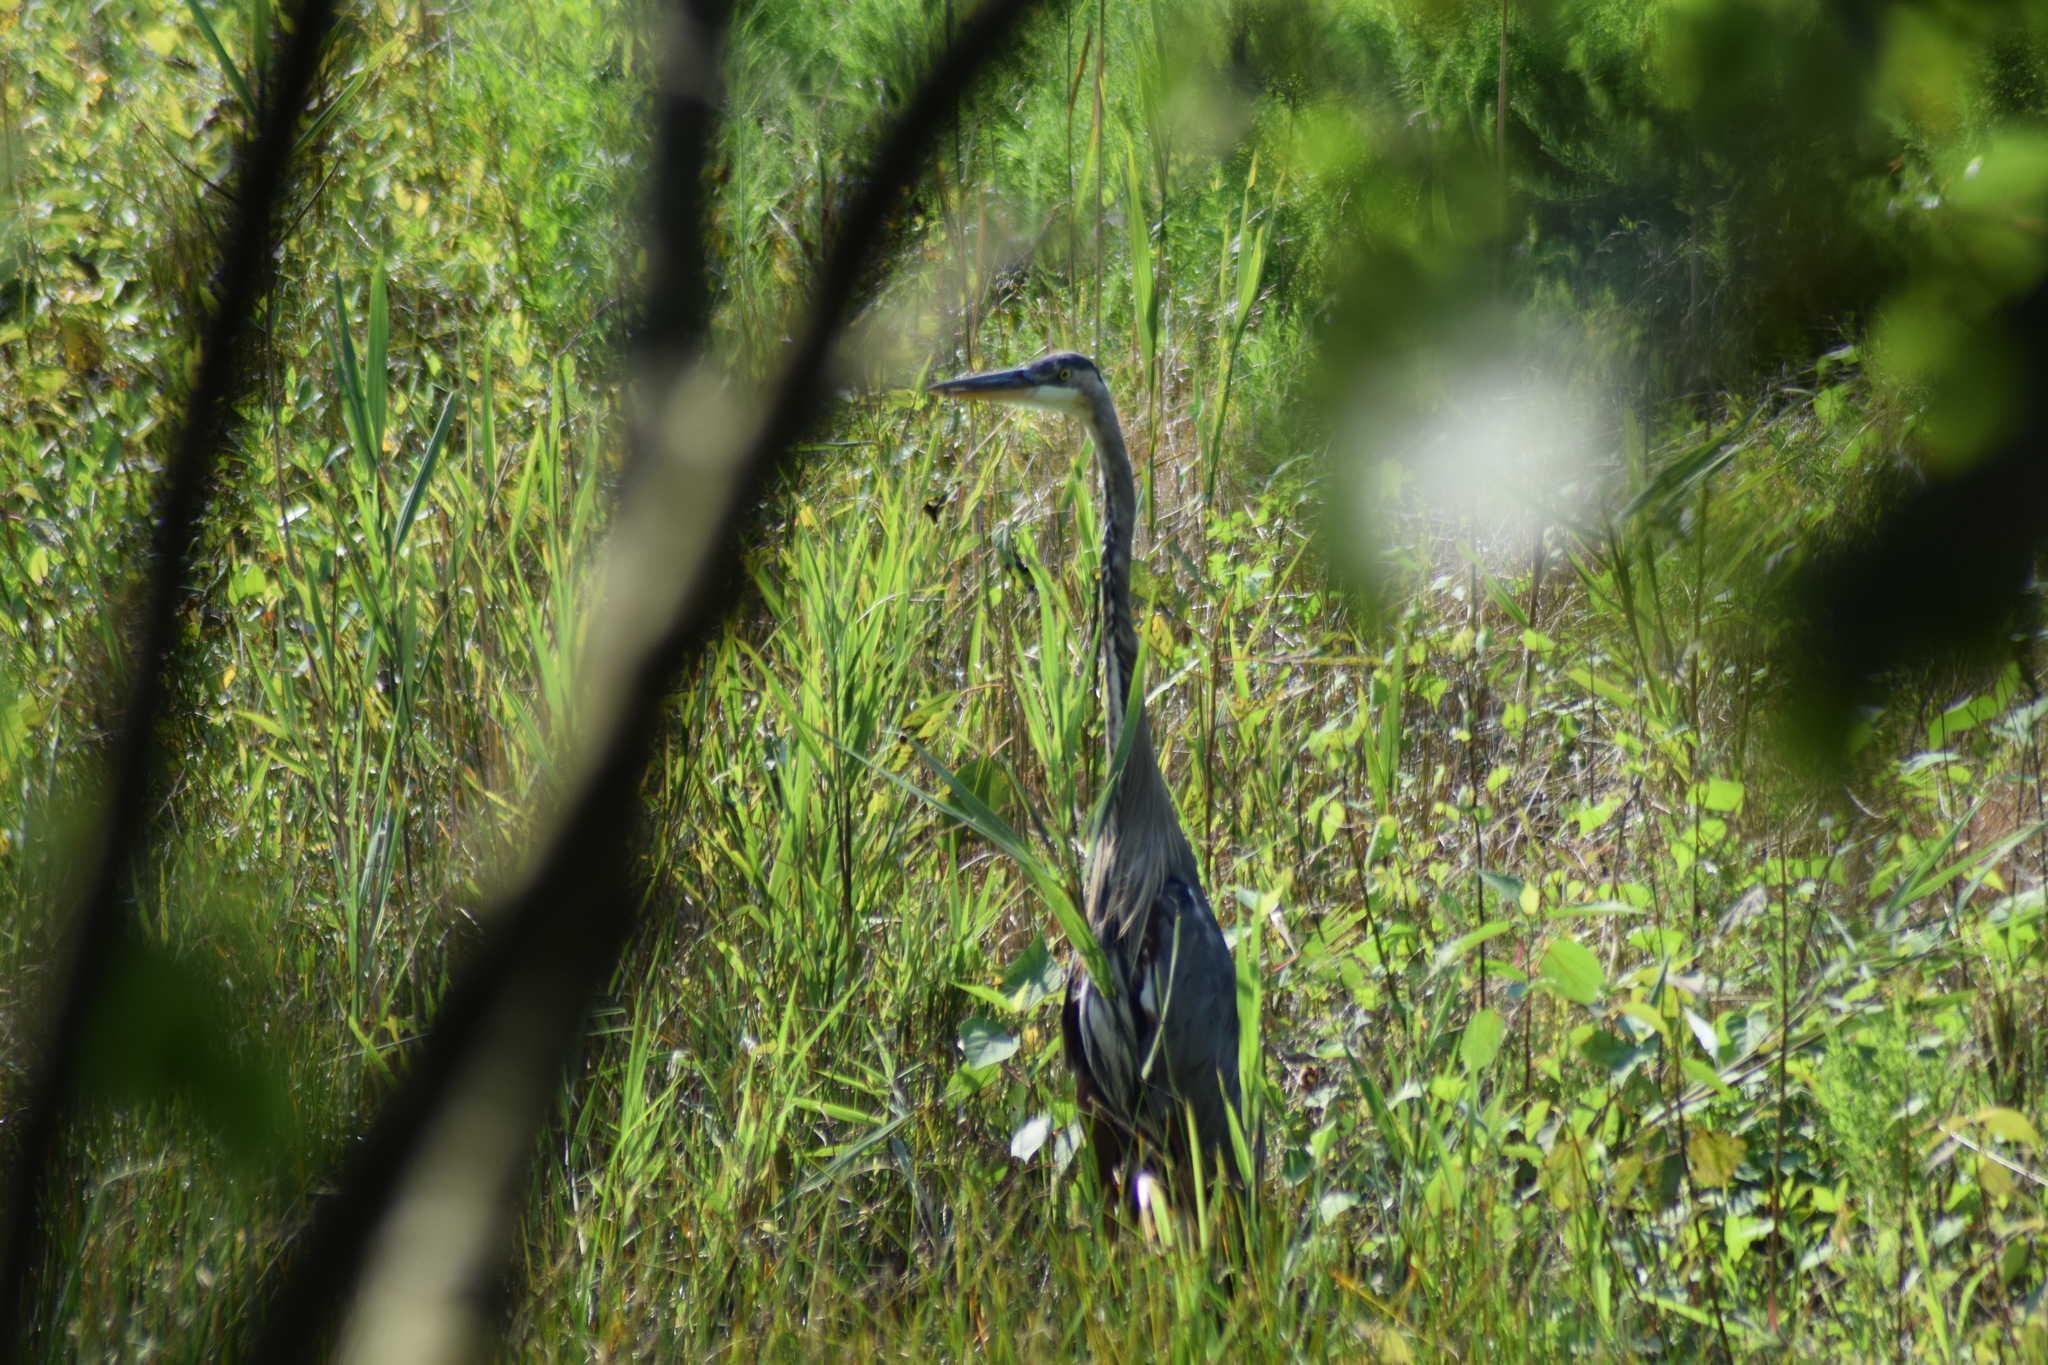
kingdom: Animalia
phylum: Chordata
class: Aves
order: Pelecaniformes
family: Ardeidae
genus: Ardea
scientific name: Ardea herodias
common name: Great blue heron
